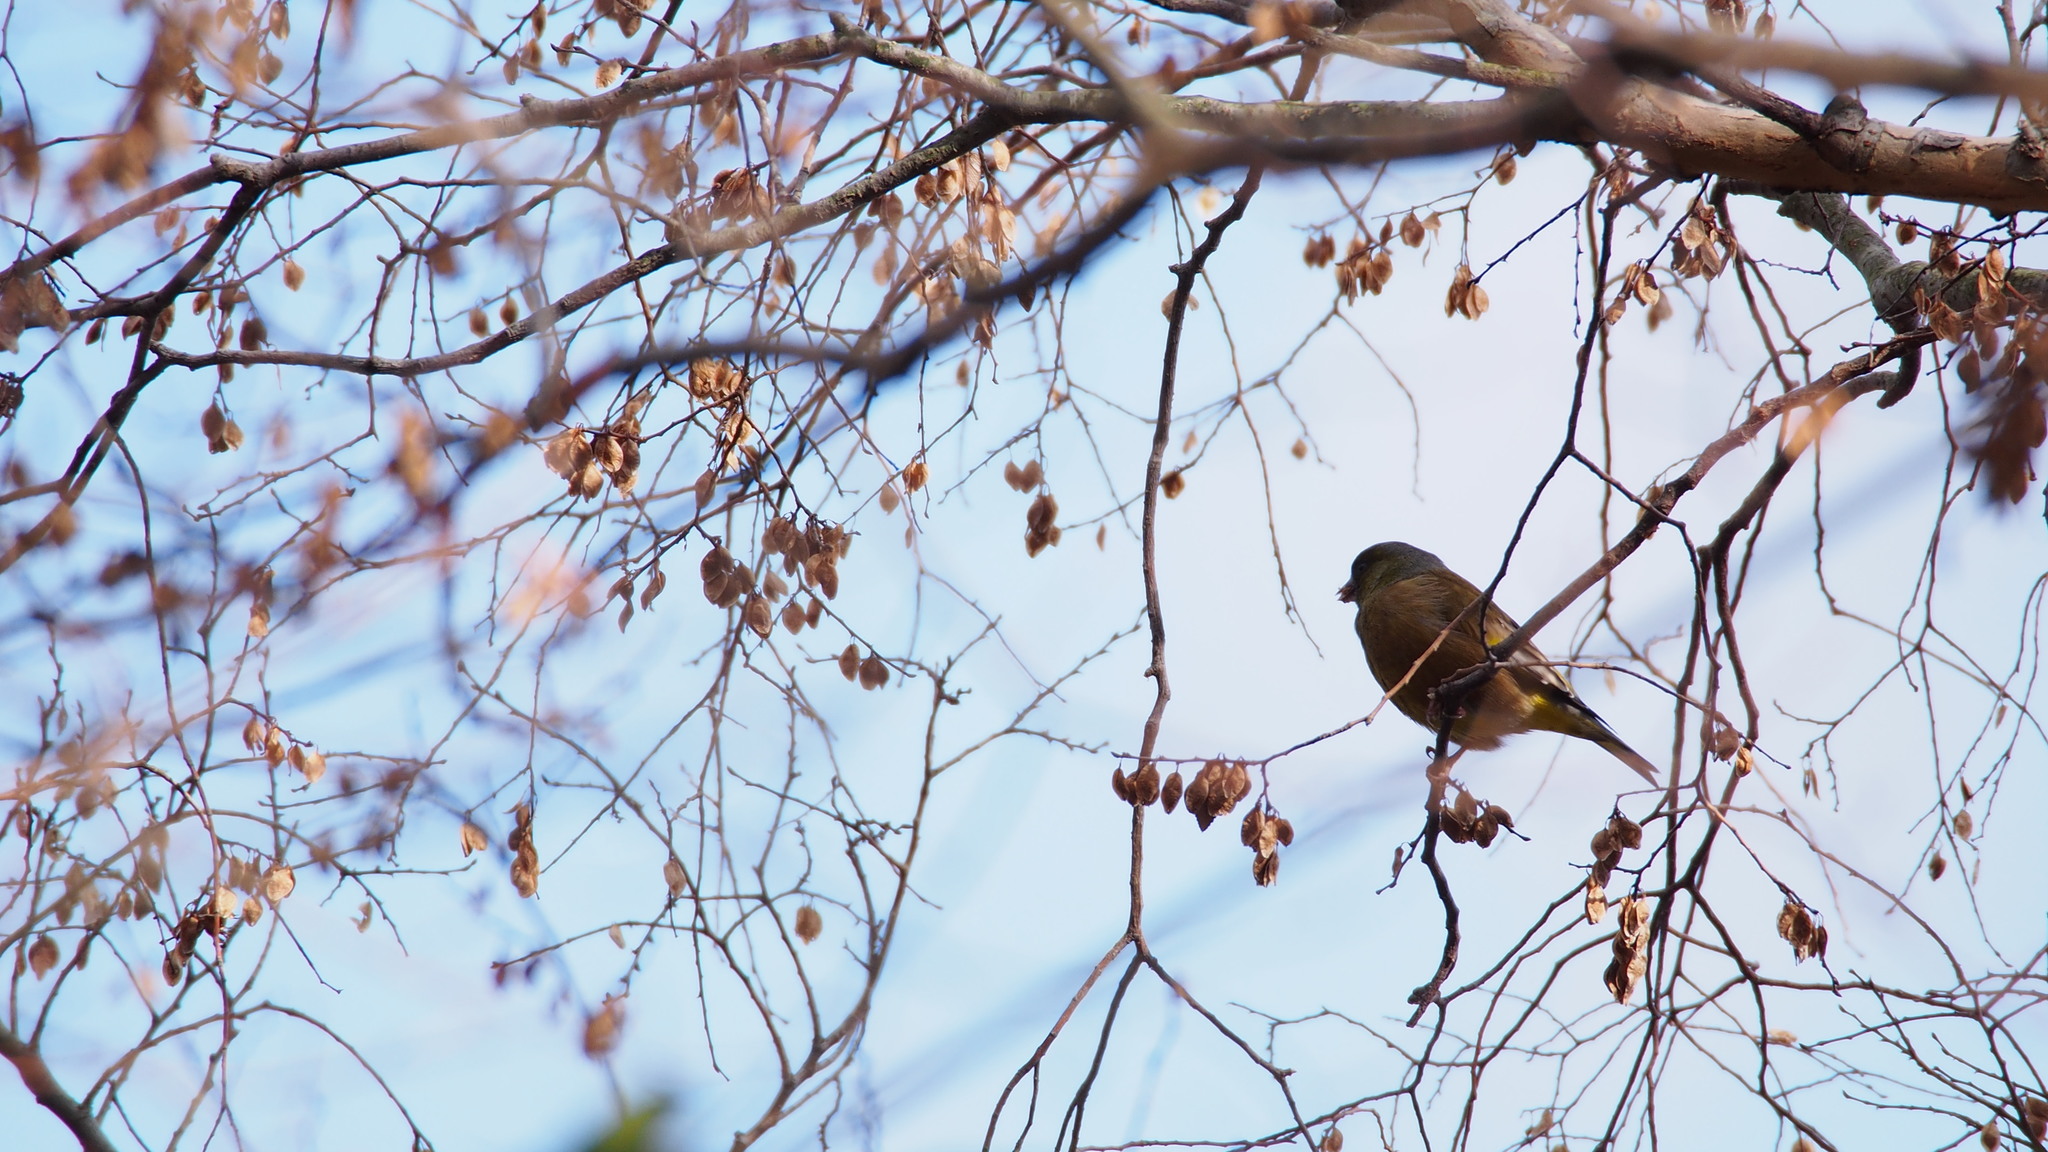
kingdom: Plantae
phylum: Tracheophyta
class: Liliopsida
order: Poales
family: Poaceae
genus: Chloris
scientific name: Chloris sinica
